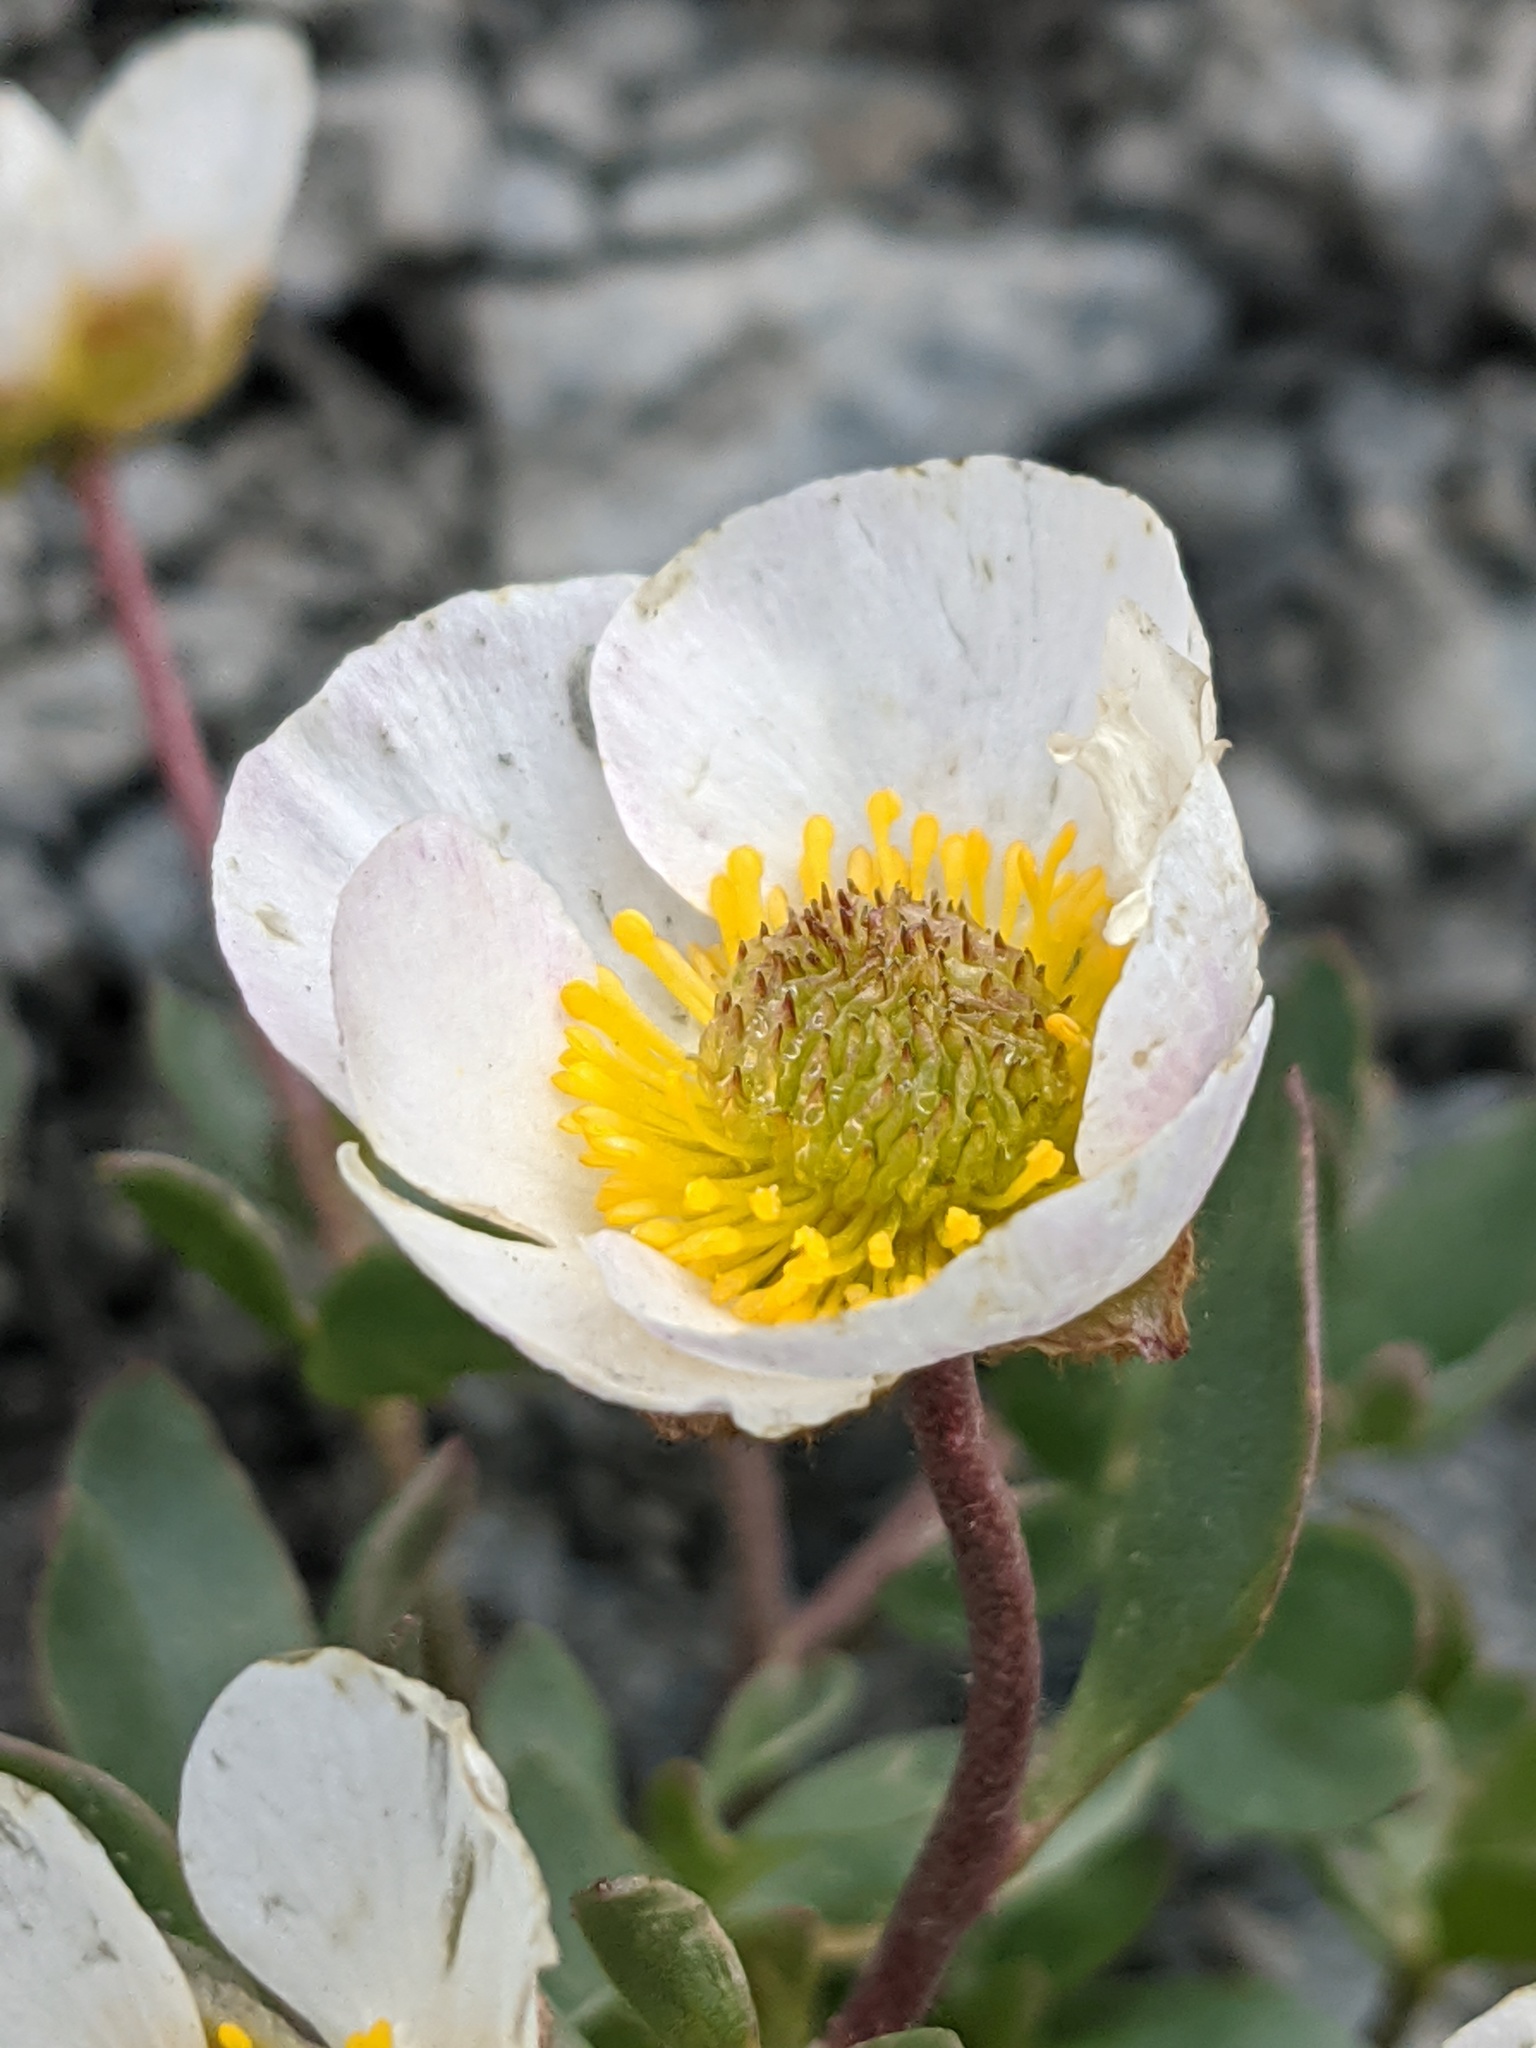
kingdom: Plantae
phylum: Tracheophyta
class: Magnoliopsida
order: Ranunculales
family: Ranunculaceae
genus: Ranunculus
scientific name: Ranunculus glacialis
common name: Glacier buttercup
